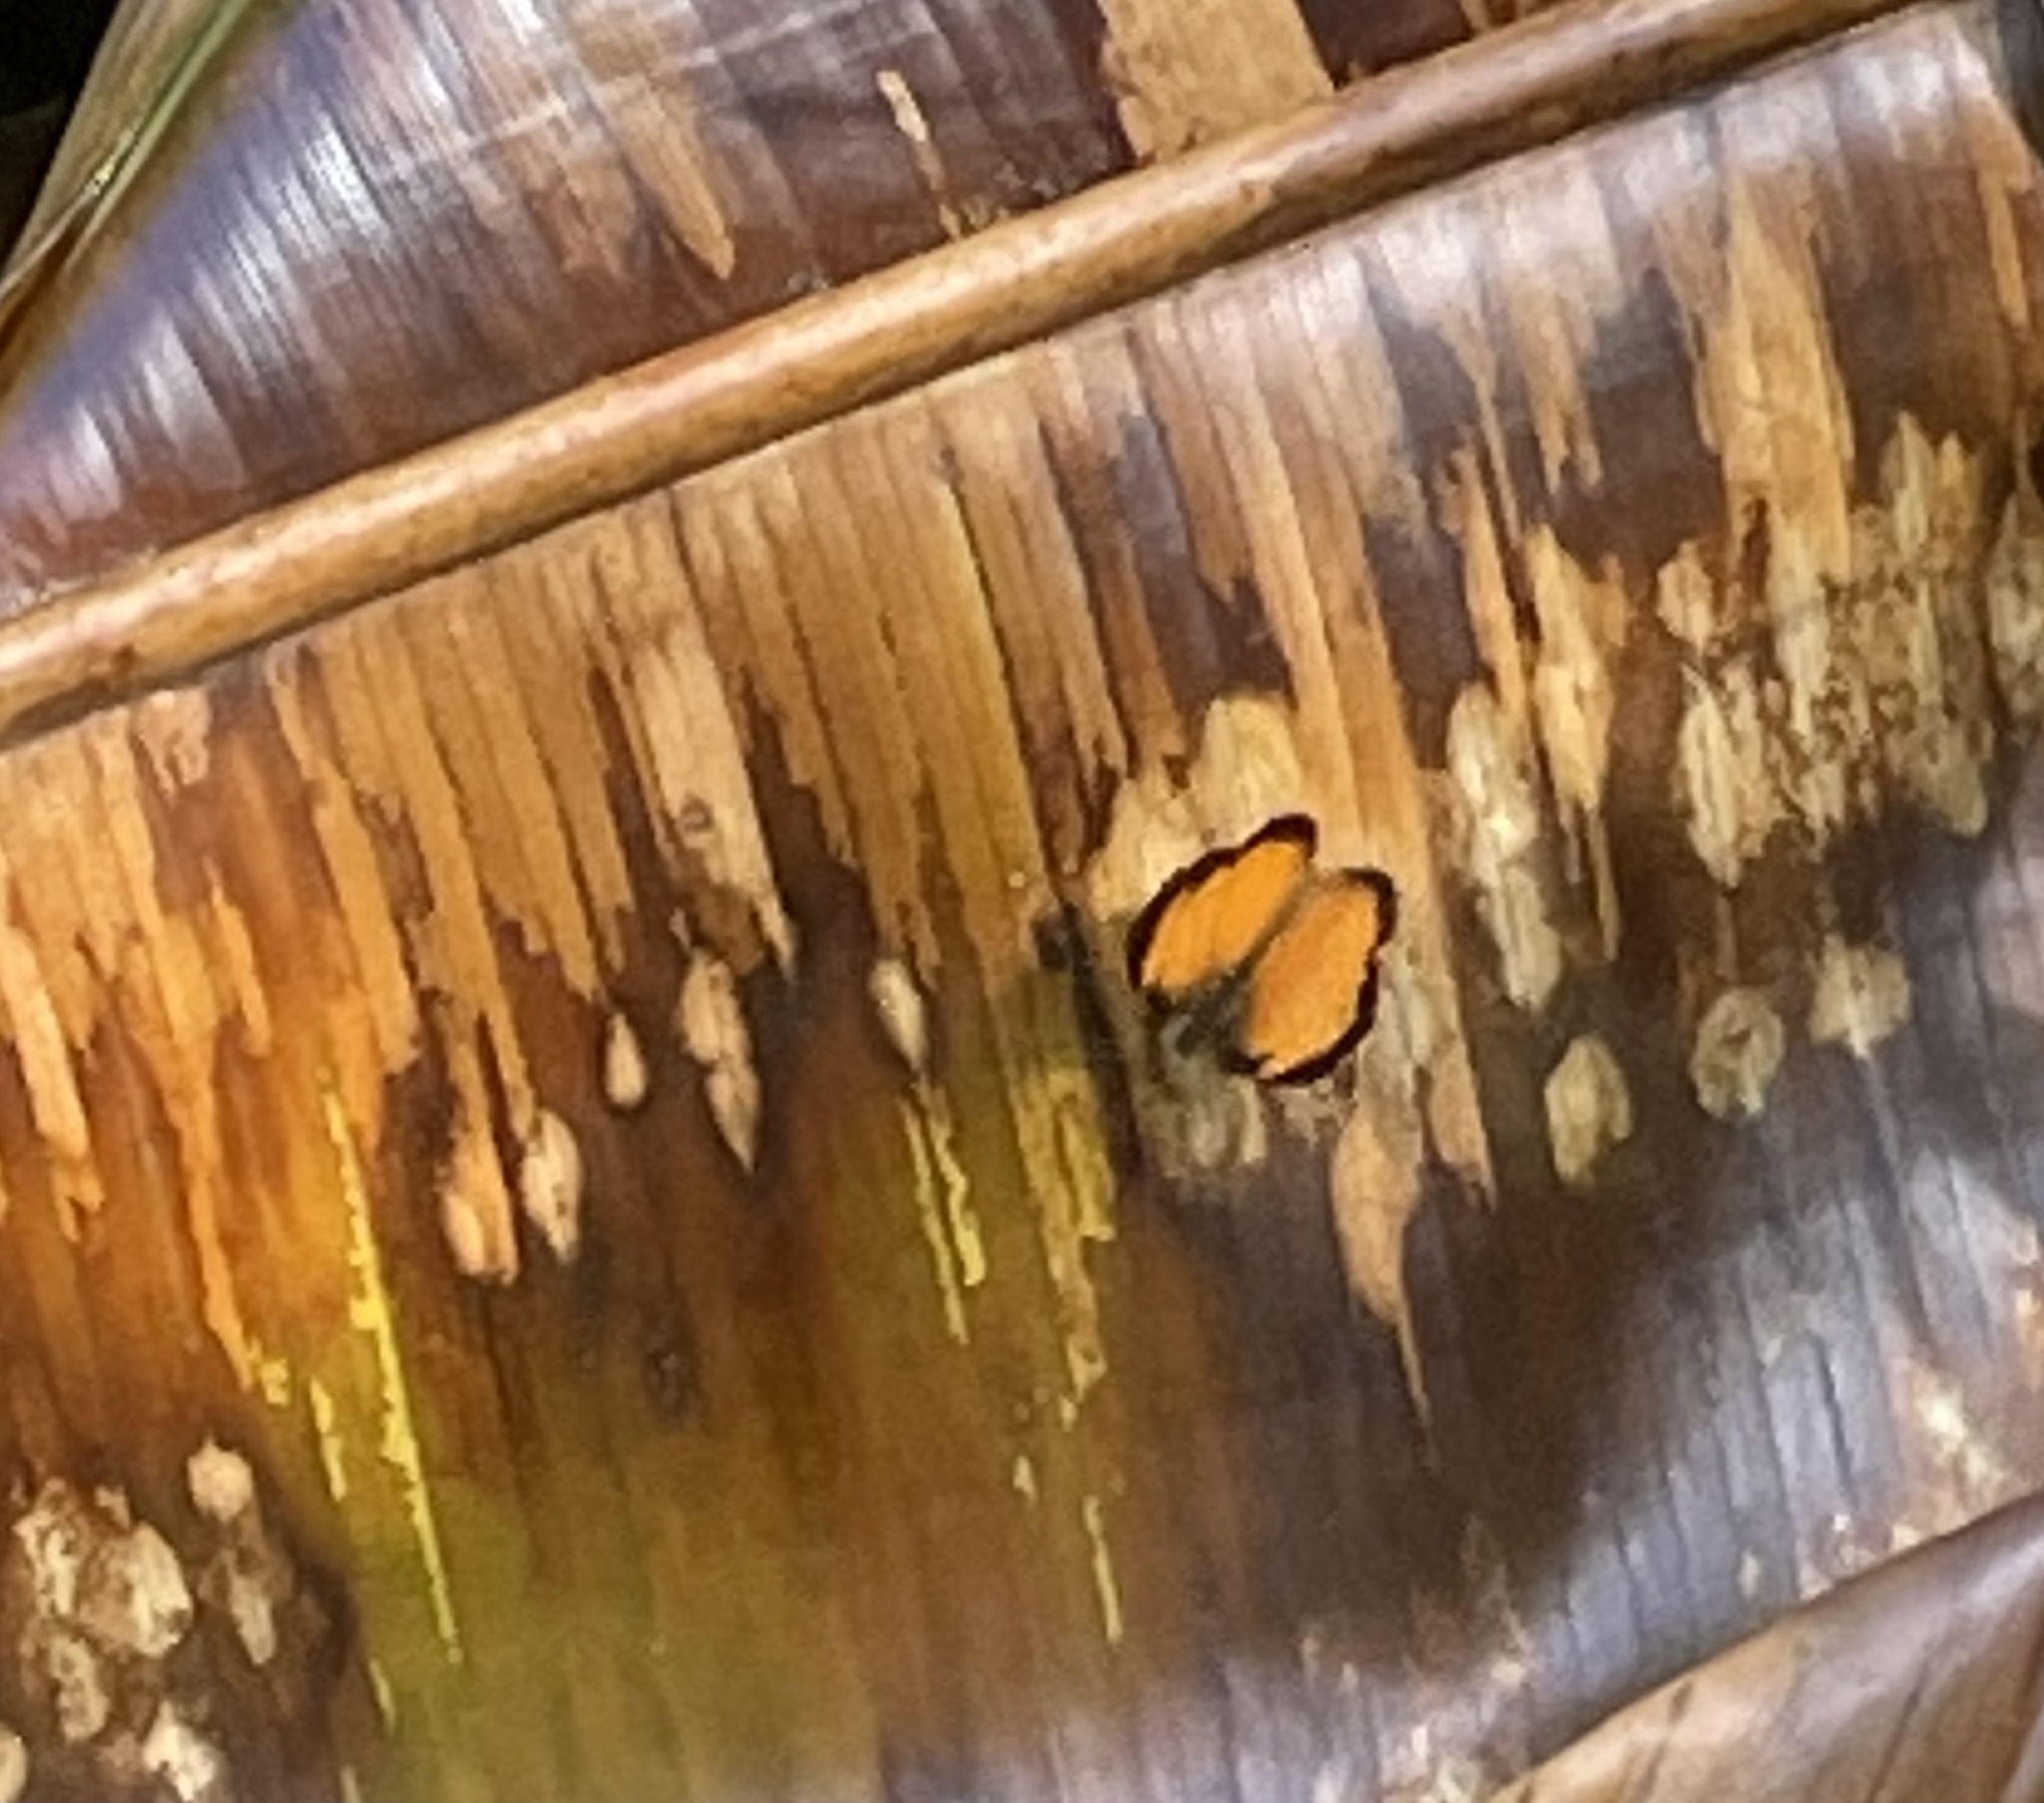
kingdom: Animalia
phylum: Arthropoda
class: Insecta
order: Lepidoptera
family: Nymphalidae
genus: Tegosa
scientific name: Tegosa anieta
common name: Black-bordered crescent
